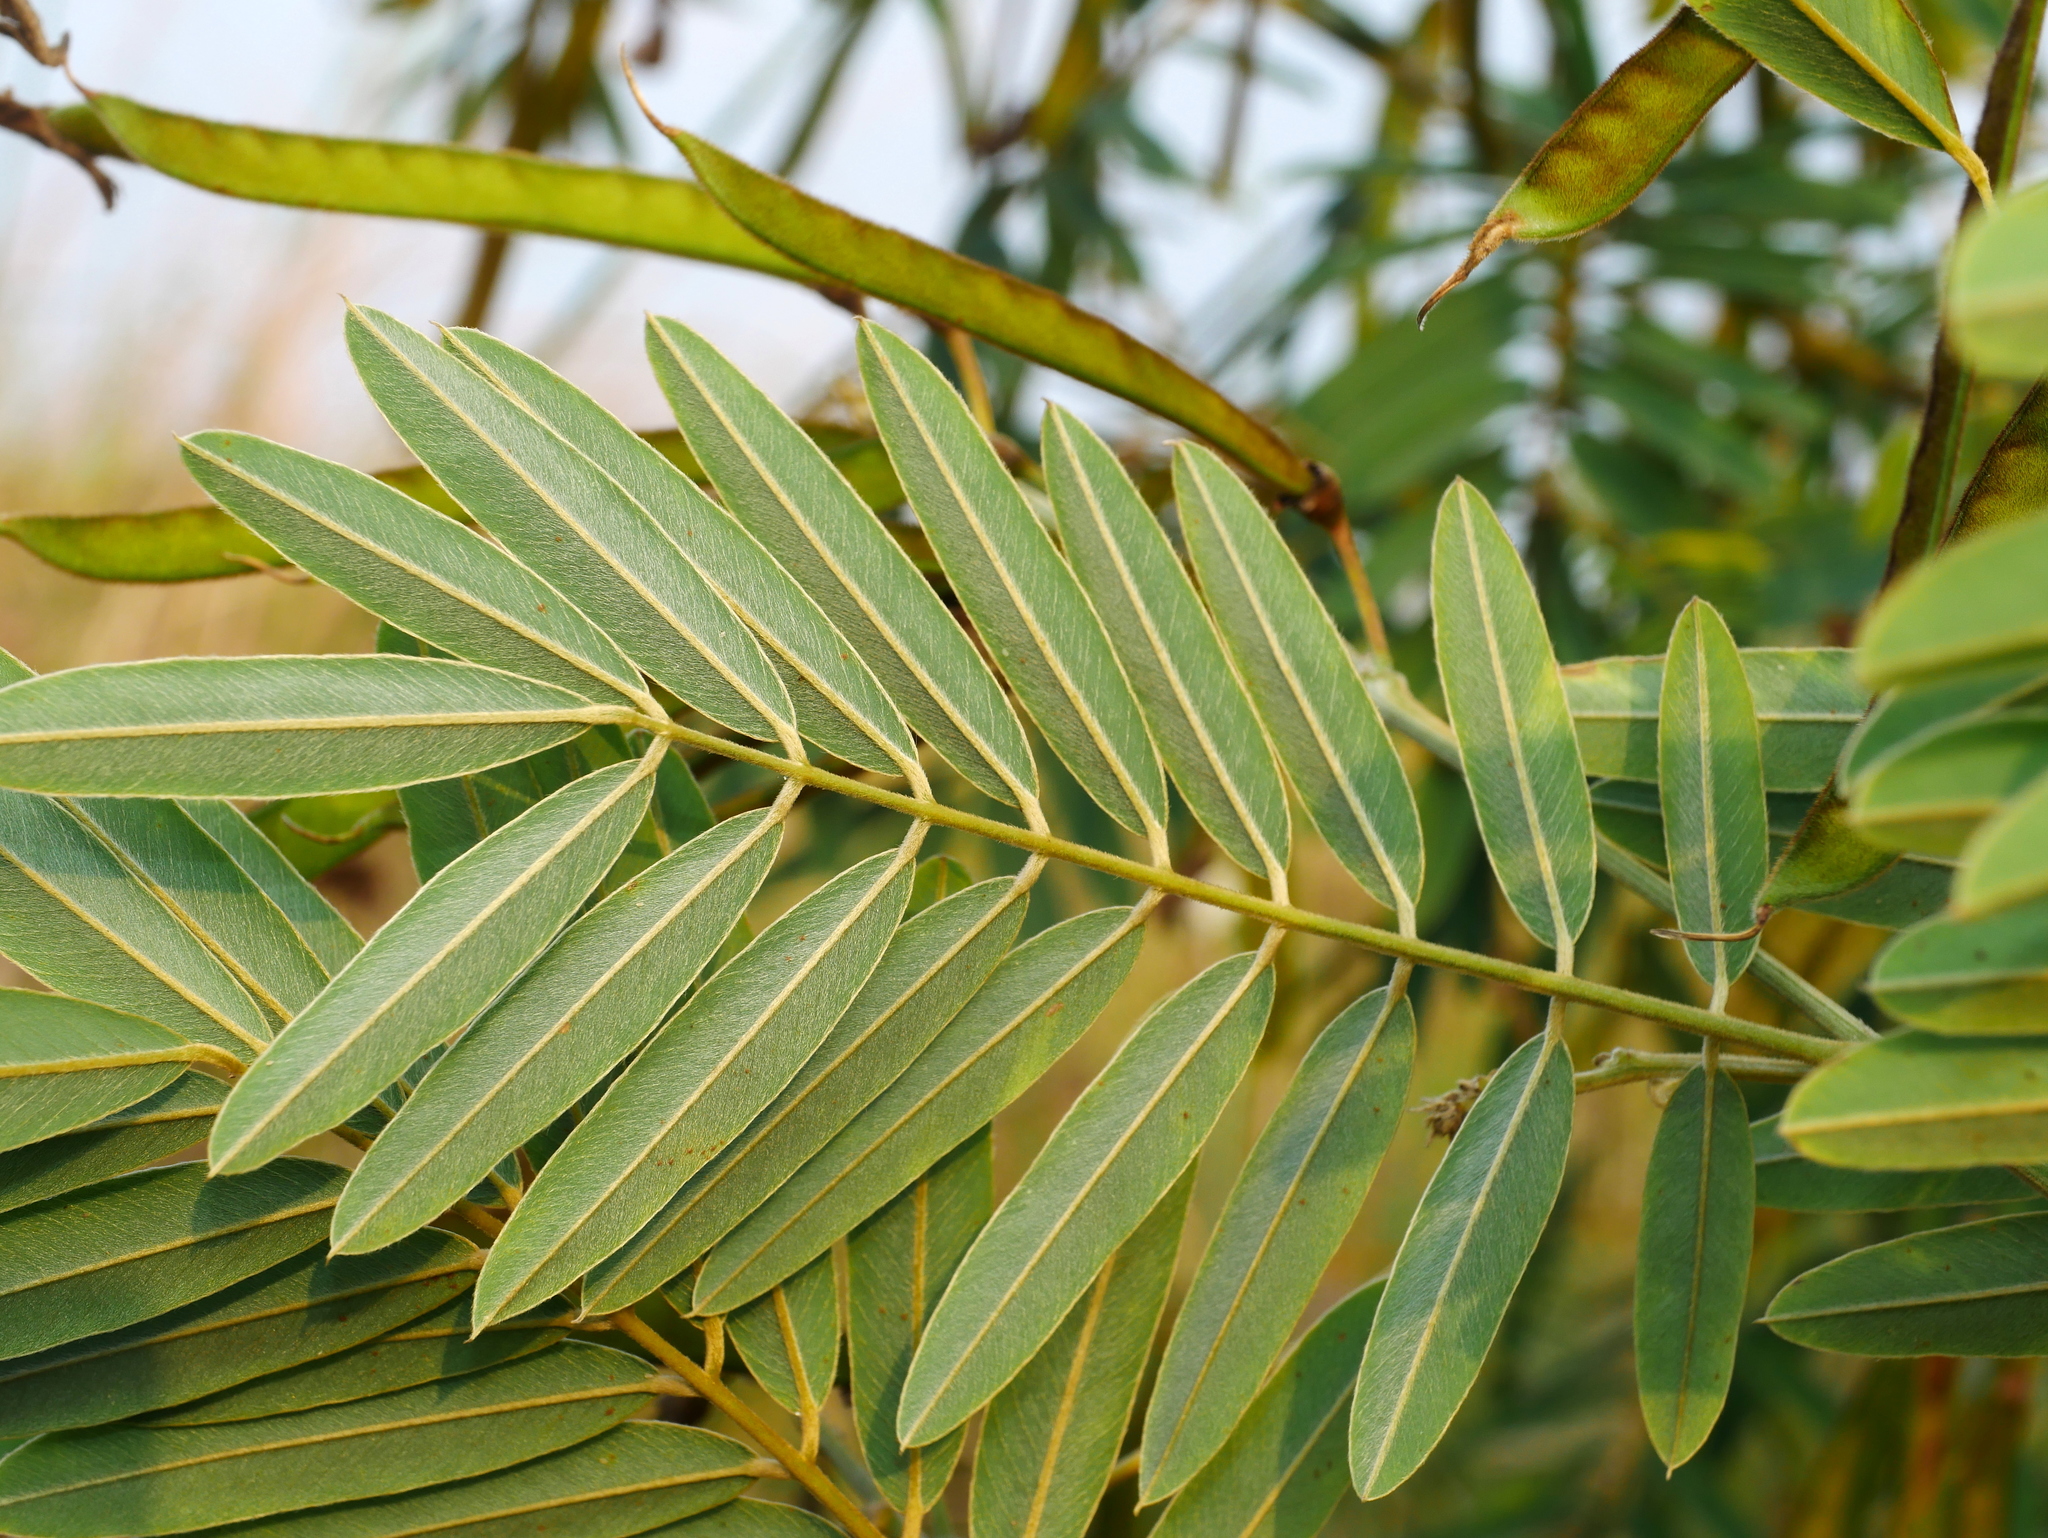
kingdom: Plantae
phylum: Tracheophyta
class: Magnoliopsida
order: Fabales
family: Fabaceae
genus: Tephrosia
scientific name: Tephrosia candida
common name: White tephrosia
